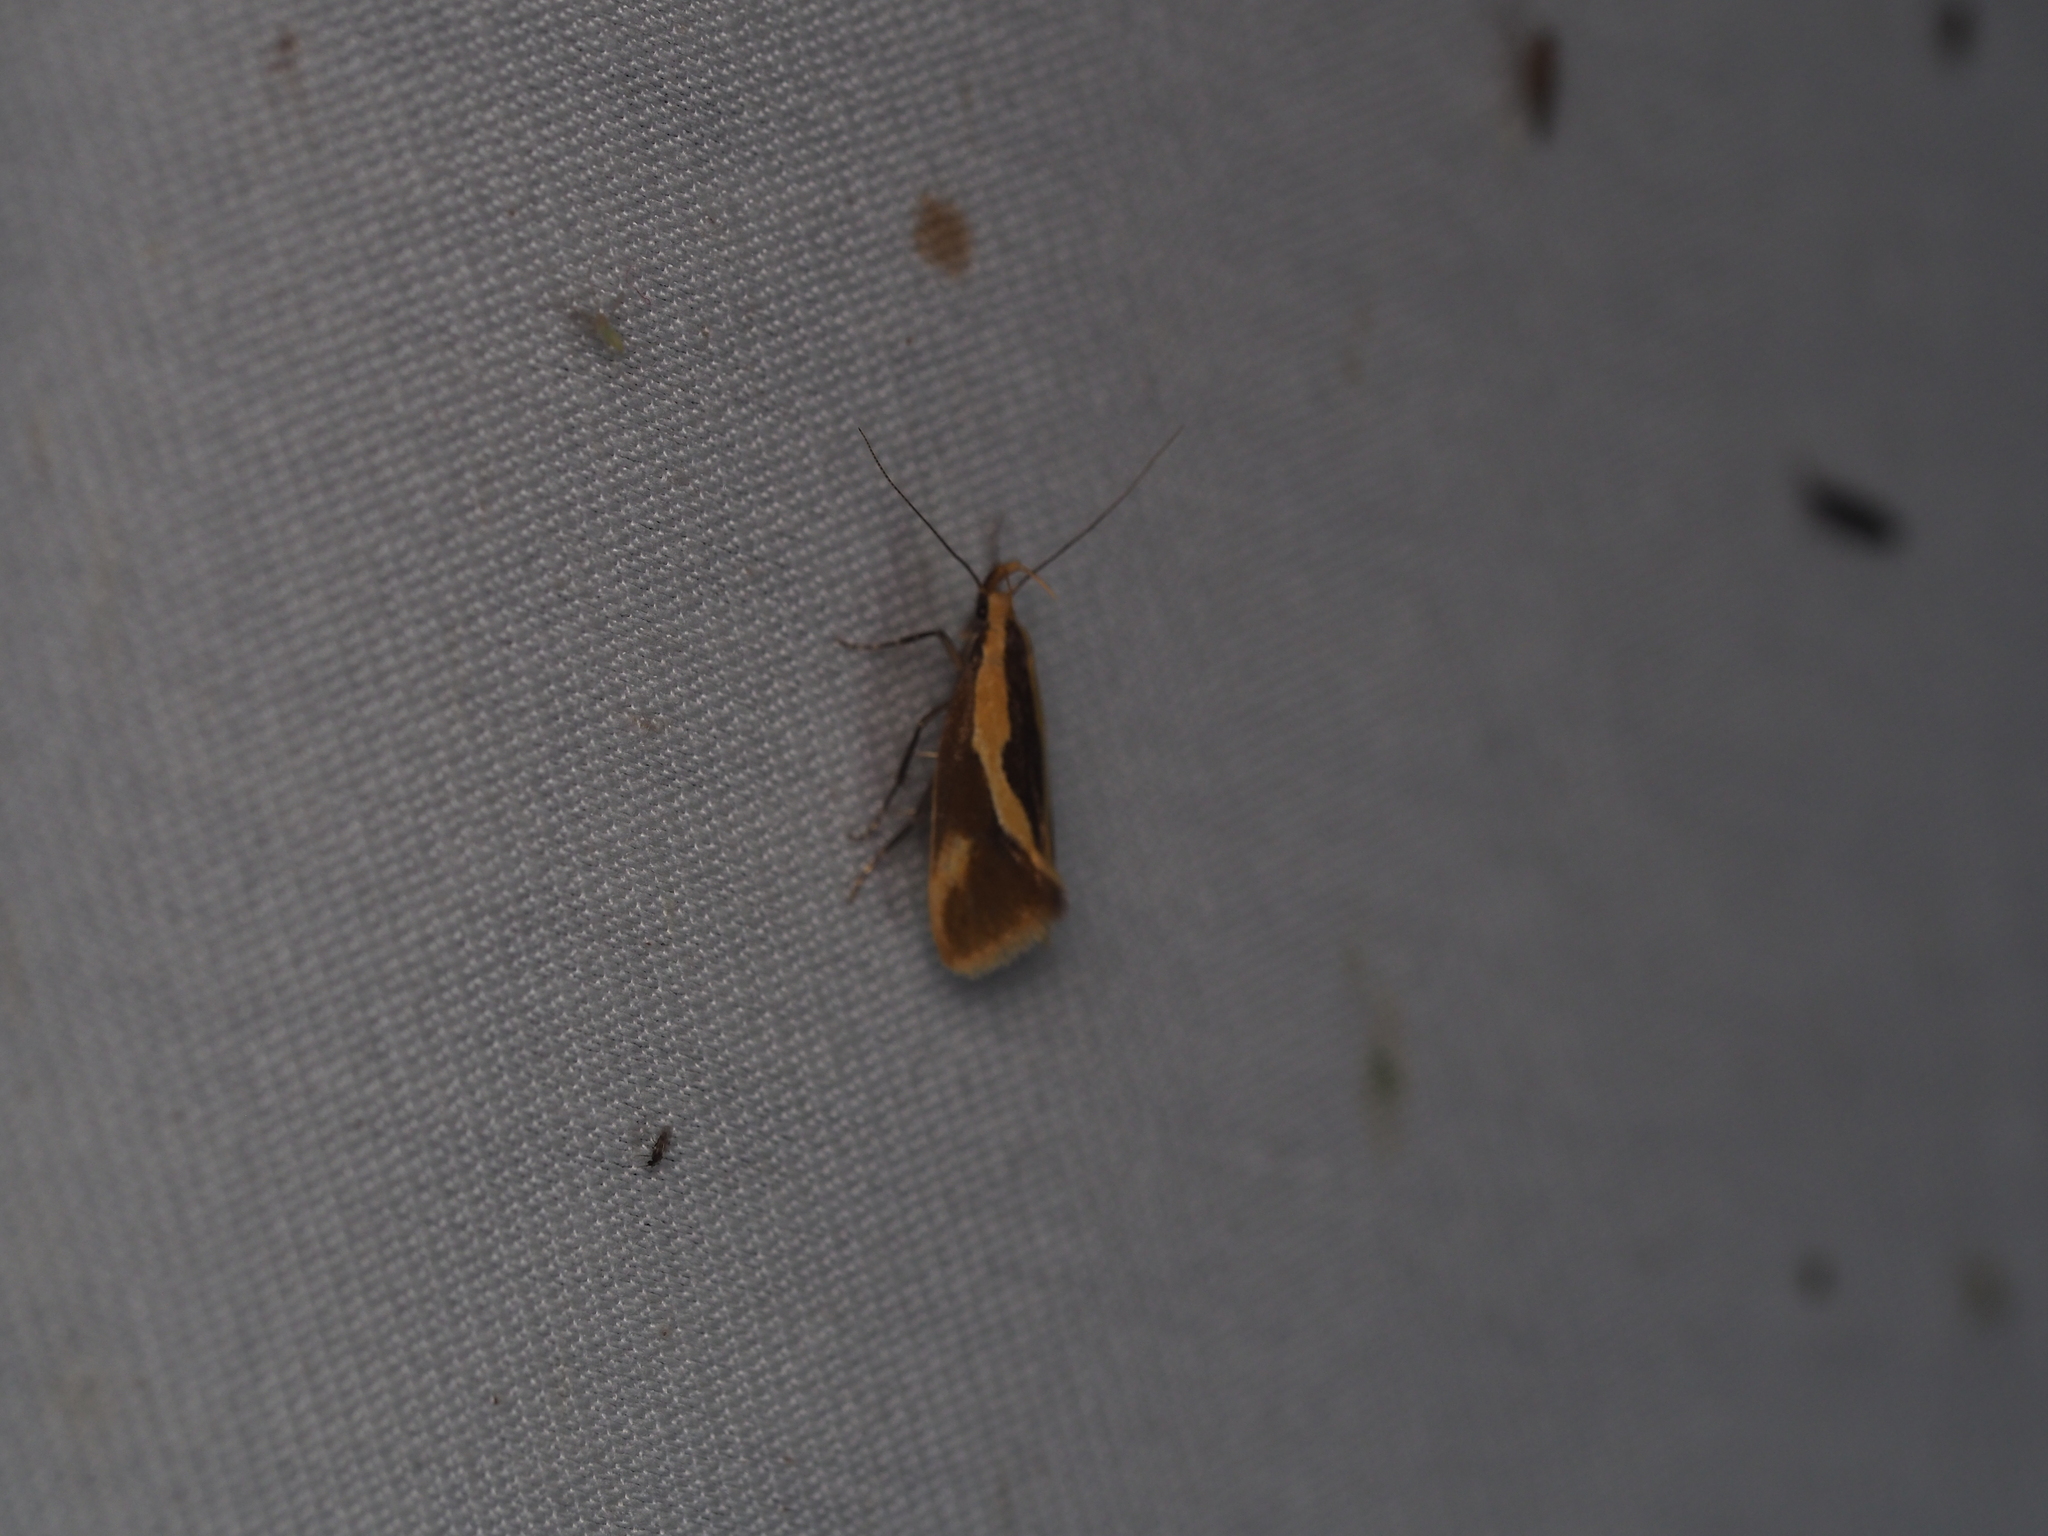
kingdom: Animalia
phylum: Arthropoda
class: Insecta
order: Lepidoptera
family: Oecophoridae
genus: Harpella
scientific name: Harpella forficella
